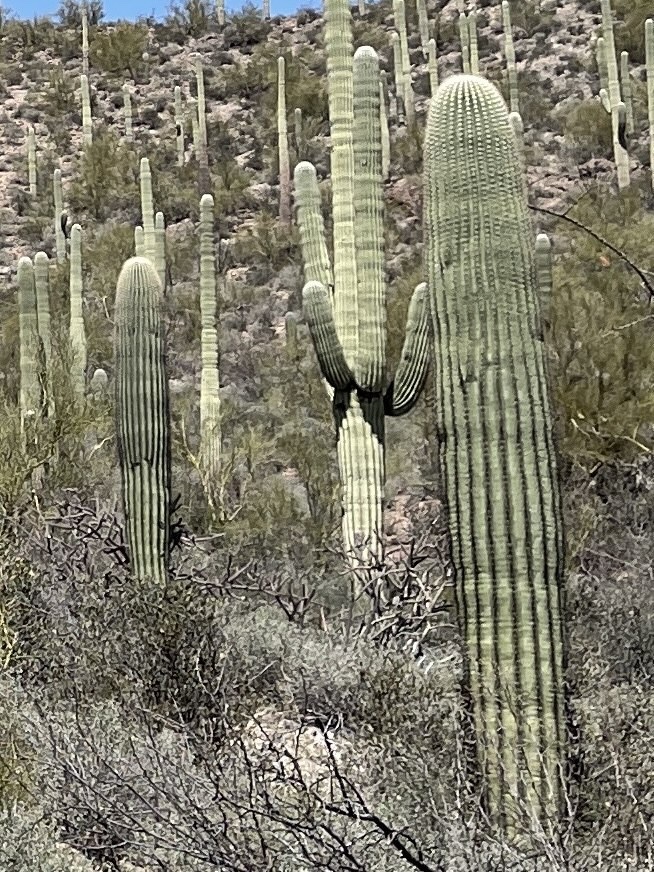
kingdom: Plantae
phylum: Tracheophyta
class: Magnoliopsida
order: Caryophyllales
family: Cactaceae
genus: Carnegiea
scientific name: Carnegiea gigantea
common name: Saguaro
